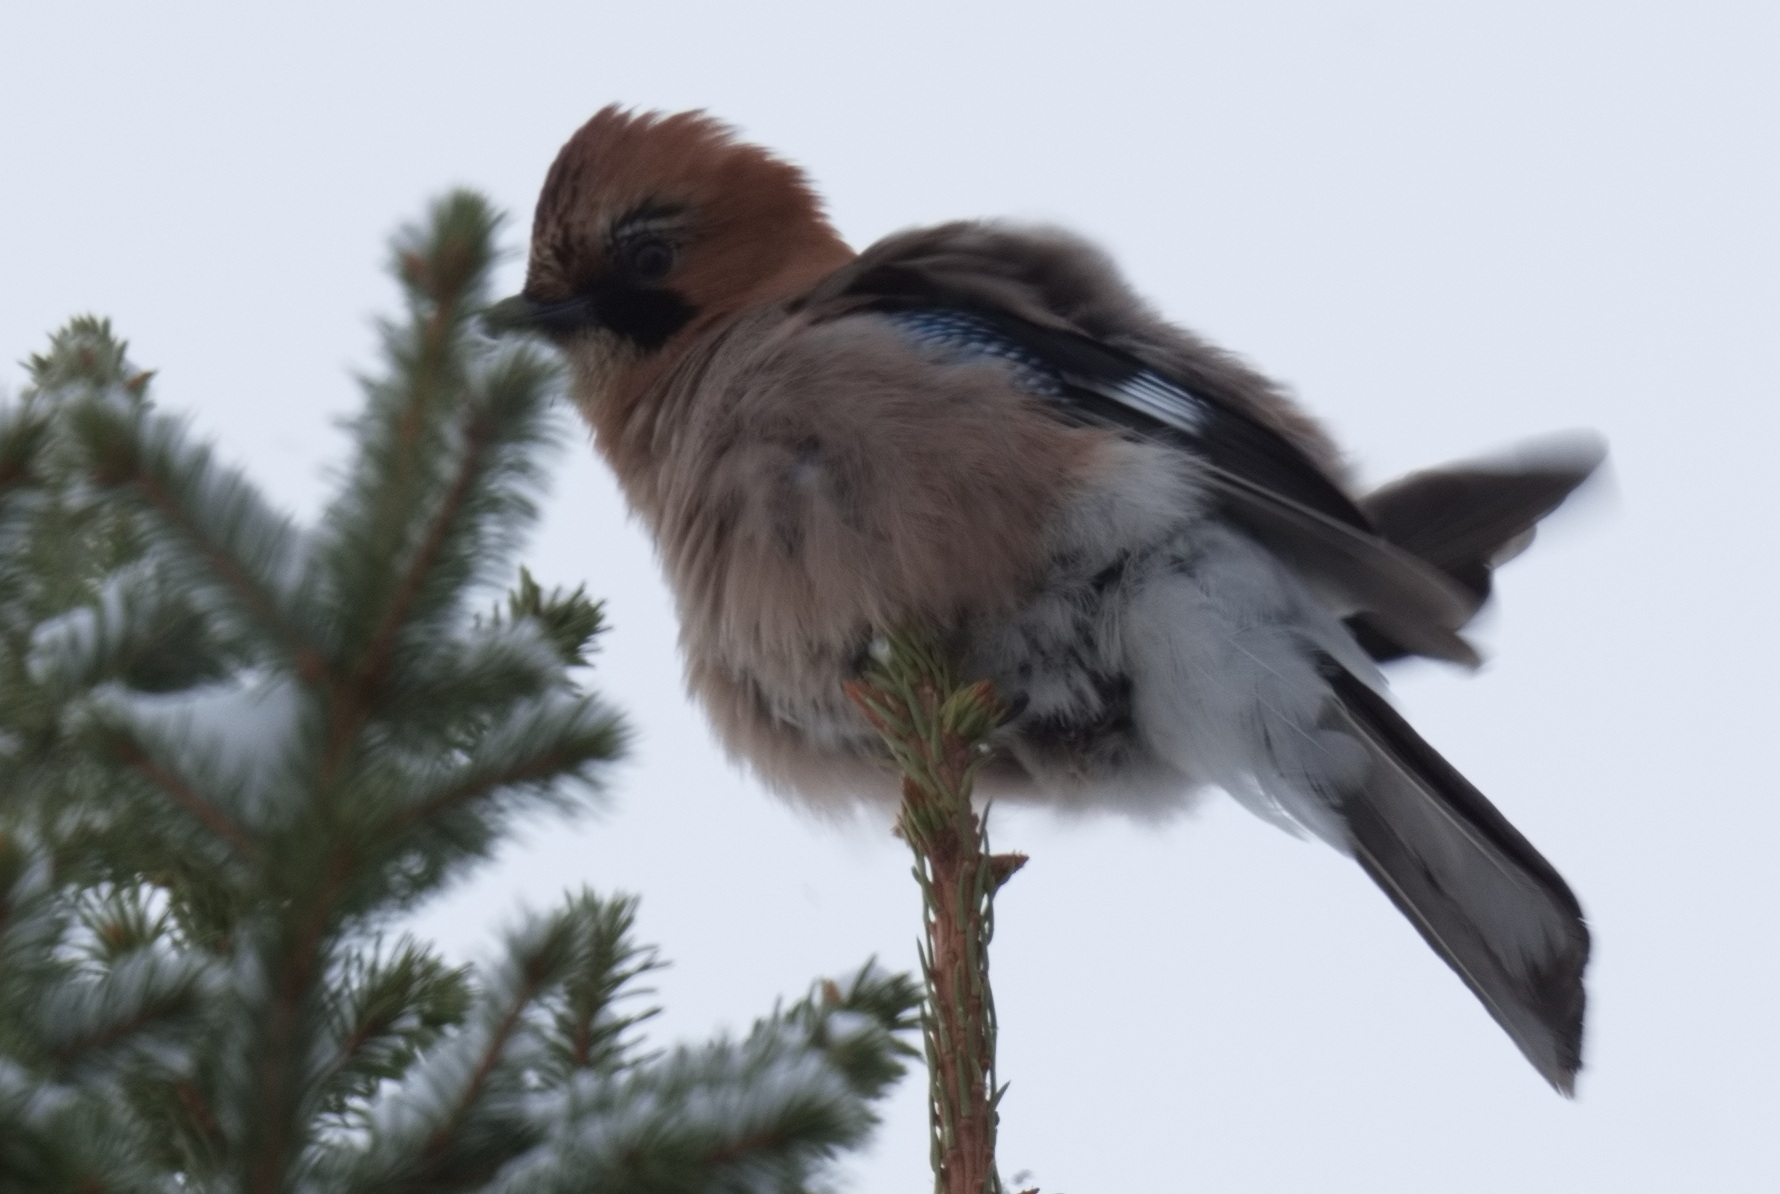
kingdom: Animalia
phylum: Chordata
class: Aves
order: Passeriformes
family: Corvidae
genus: Garrulus
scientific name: Garrulus glandarius
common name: Eurasian jay
